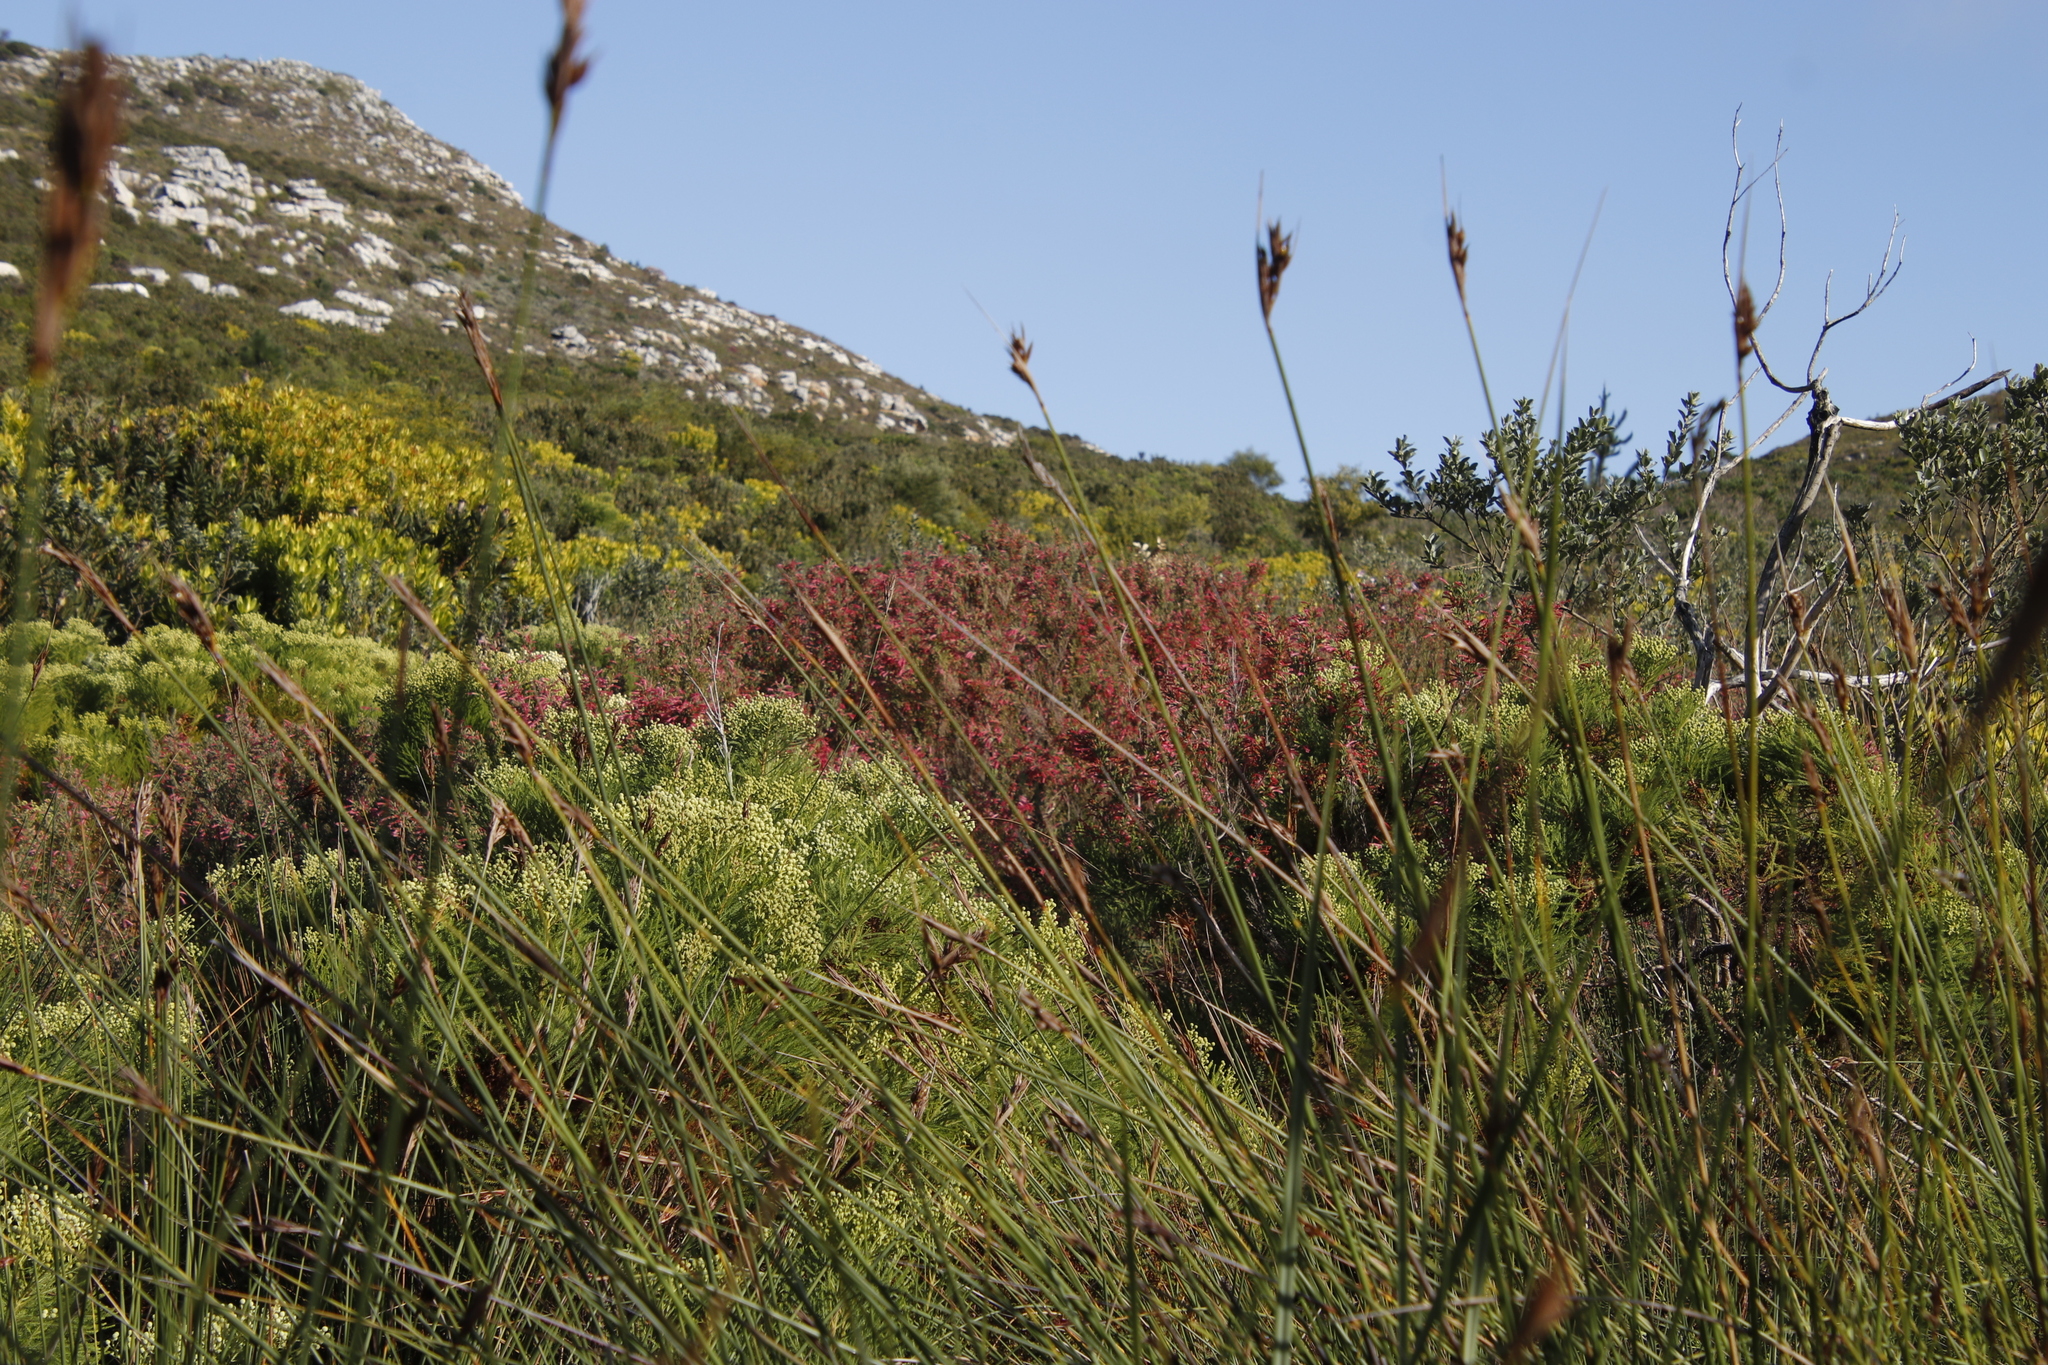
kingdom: Plantae
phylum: Tracheophyta
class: Magnoliopsida
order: Ericales
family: Ericaceae
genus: Erica
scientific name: Erica curviflora
